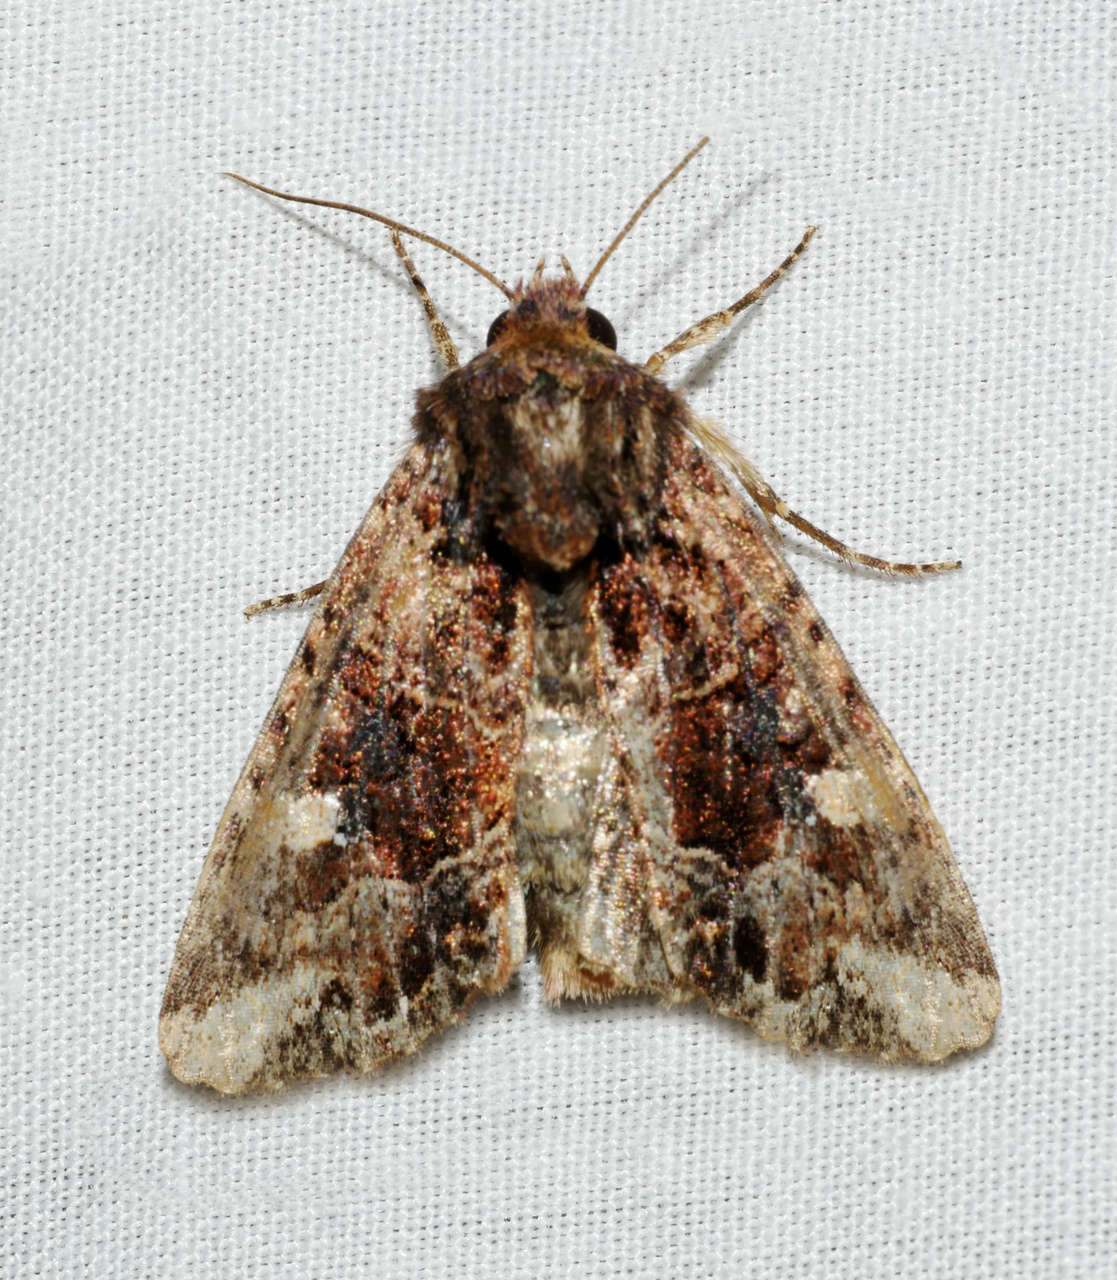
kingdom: Animalia
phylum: Arthropoda
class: Insecta
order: Lepidoptera
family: Noctuidae
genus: Neumichtis
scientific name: Neumichtis saliaris
